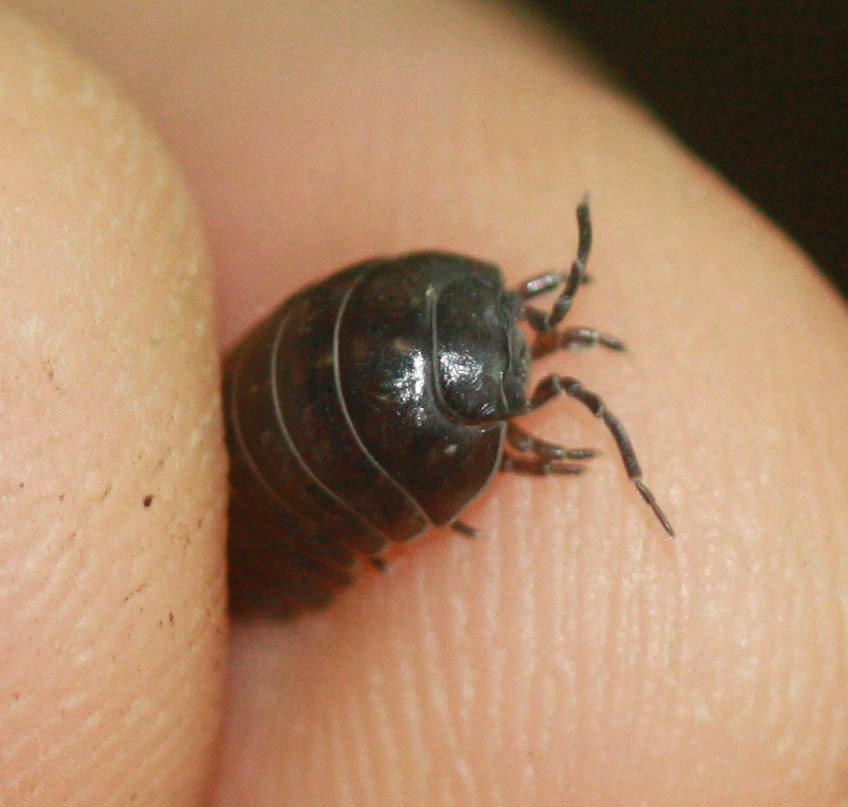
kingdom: Animalia
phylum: Arthropoda
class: Malacostraca
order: Isopoda
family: Armadillidiidae
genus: Armadillidium
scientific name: Armadillidium vulgare
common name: Common pill woodlouse
